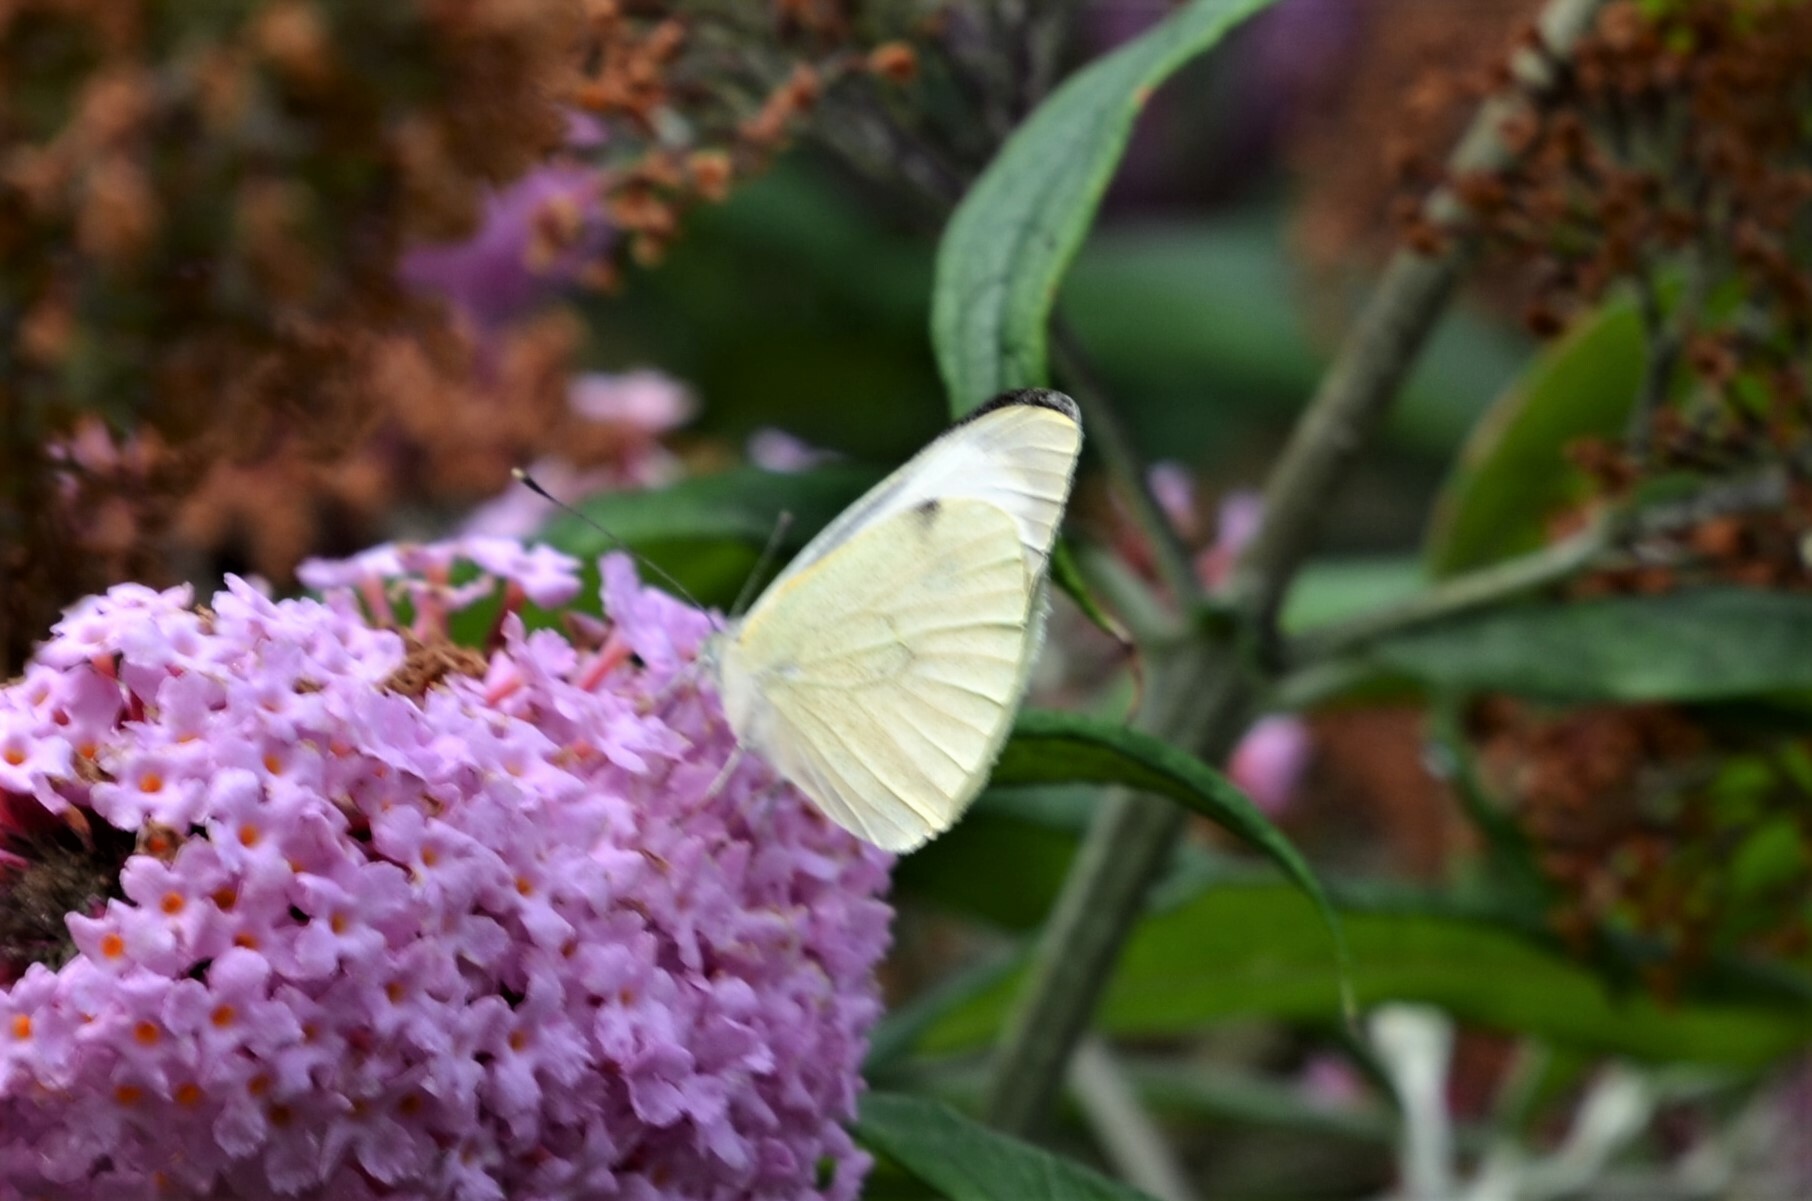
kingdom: Animalia
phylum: Arthropoda
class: Insecta
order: Lepidoptera
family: Pieridae
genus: Pieris
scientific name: Pieris brassicae
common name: Large white
